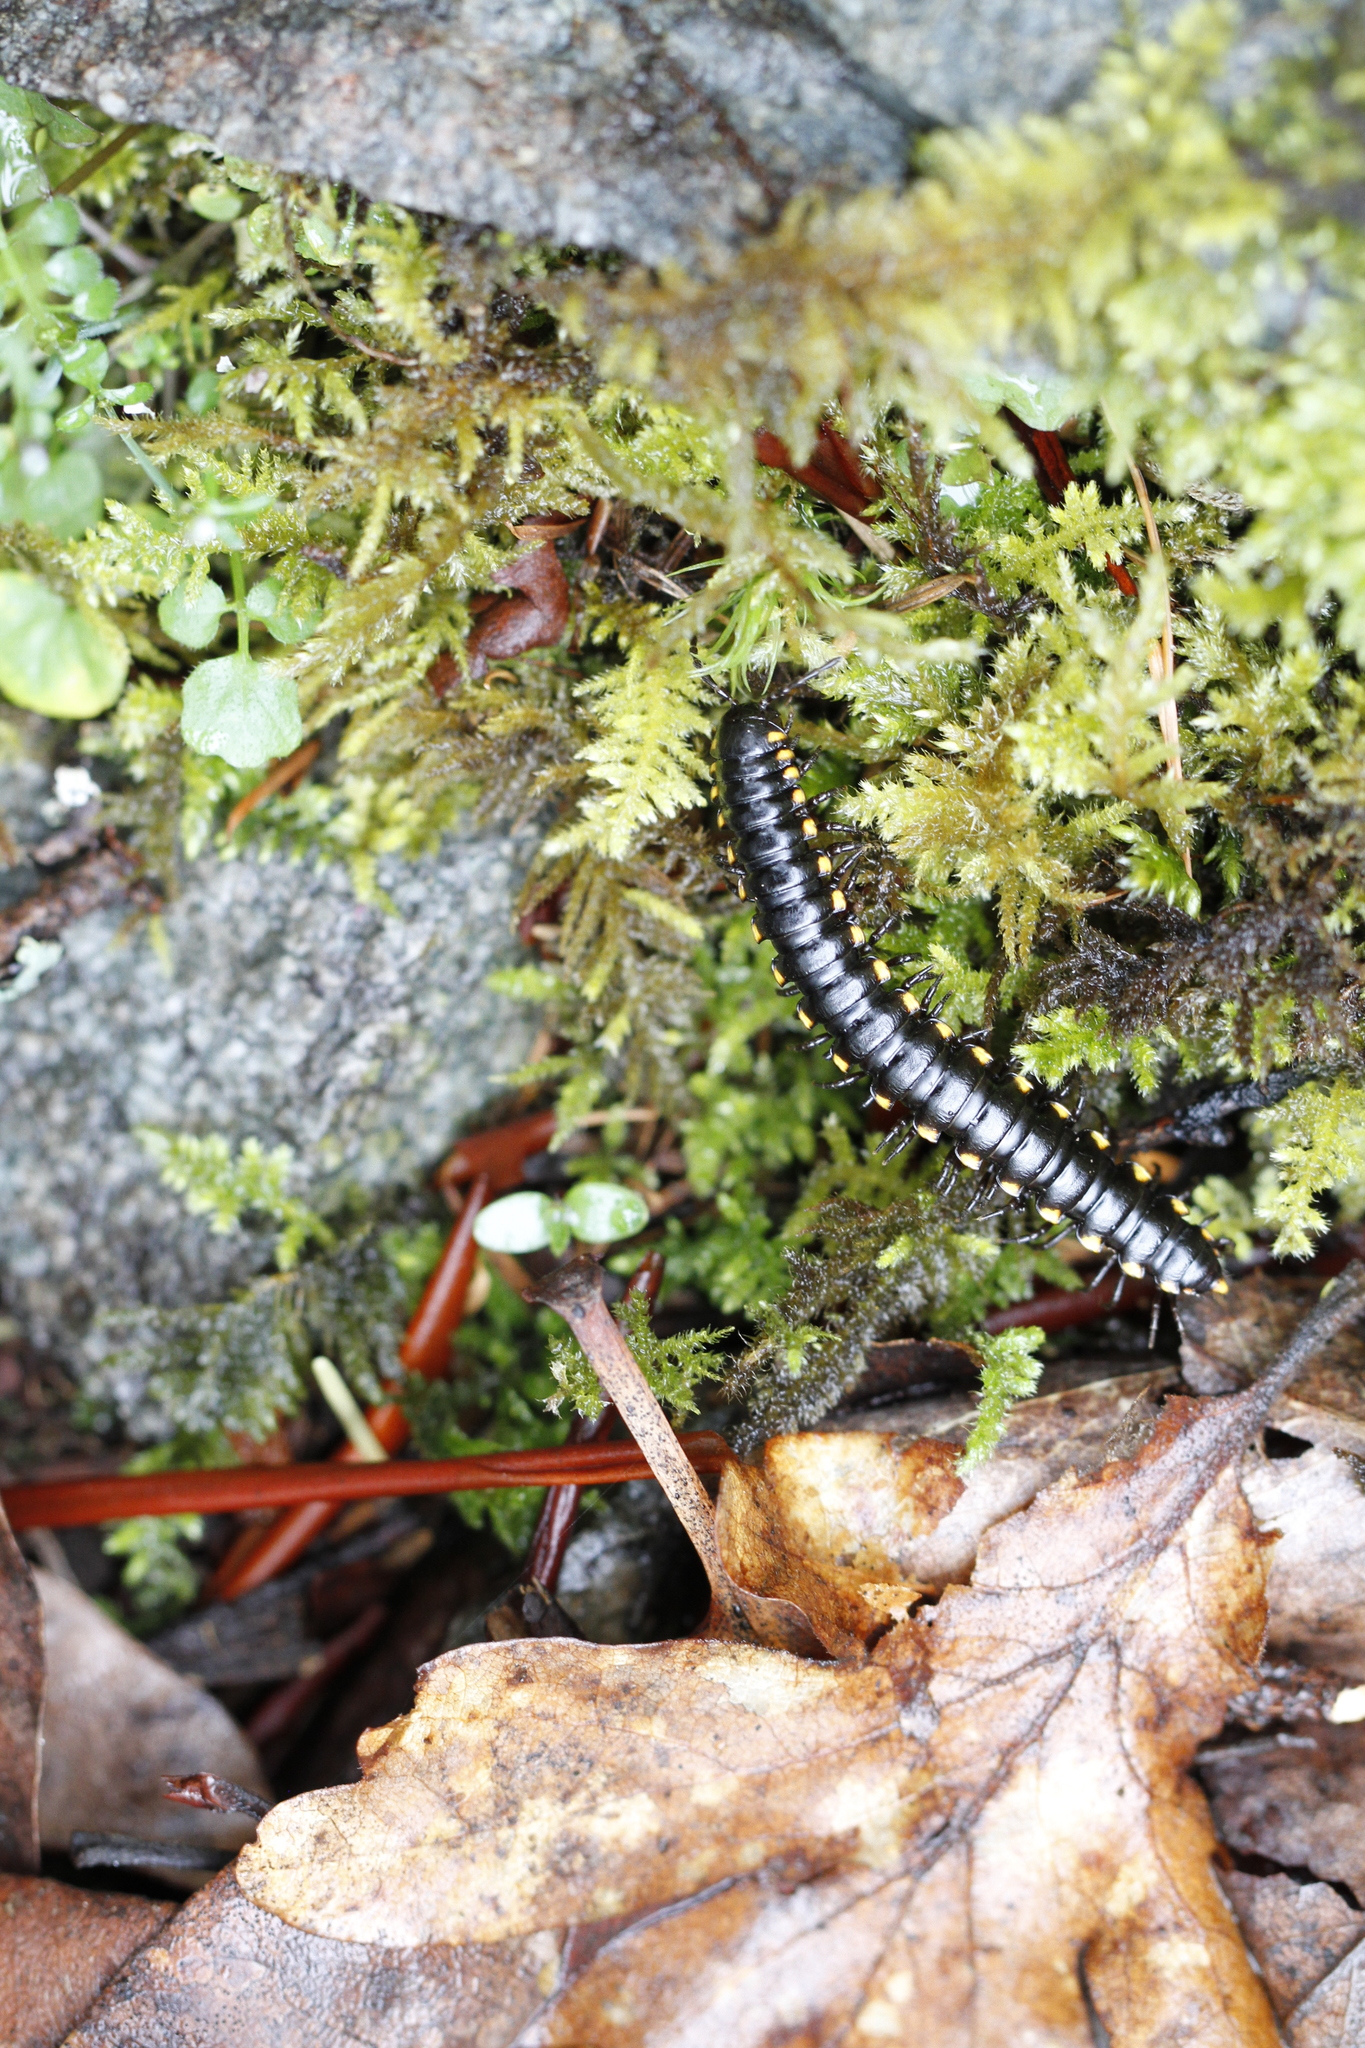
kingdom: Animalia
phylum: Arthropoda
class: Diplopoda
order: Polydesmida
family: Xystodesmidae
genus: Harpaphe
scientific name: Harpaphe haydeniana
